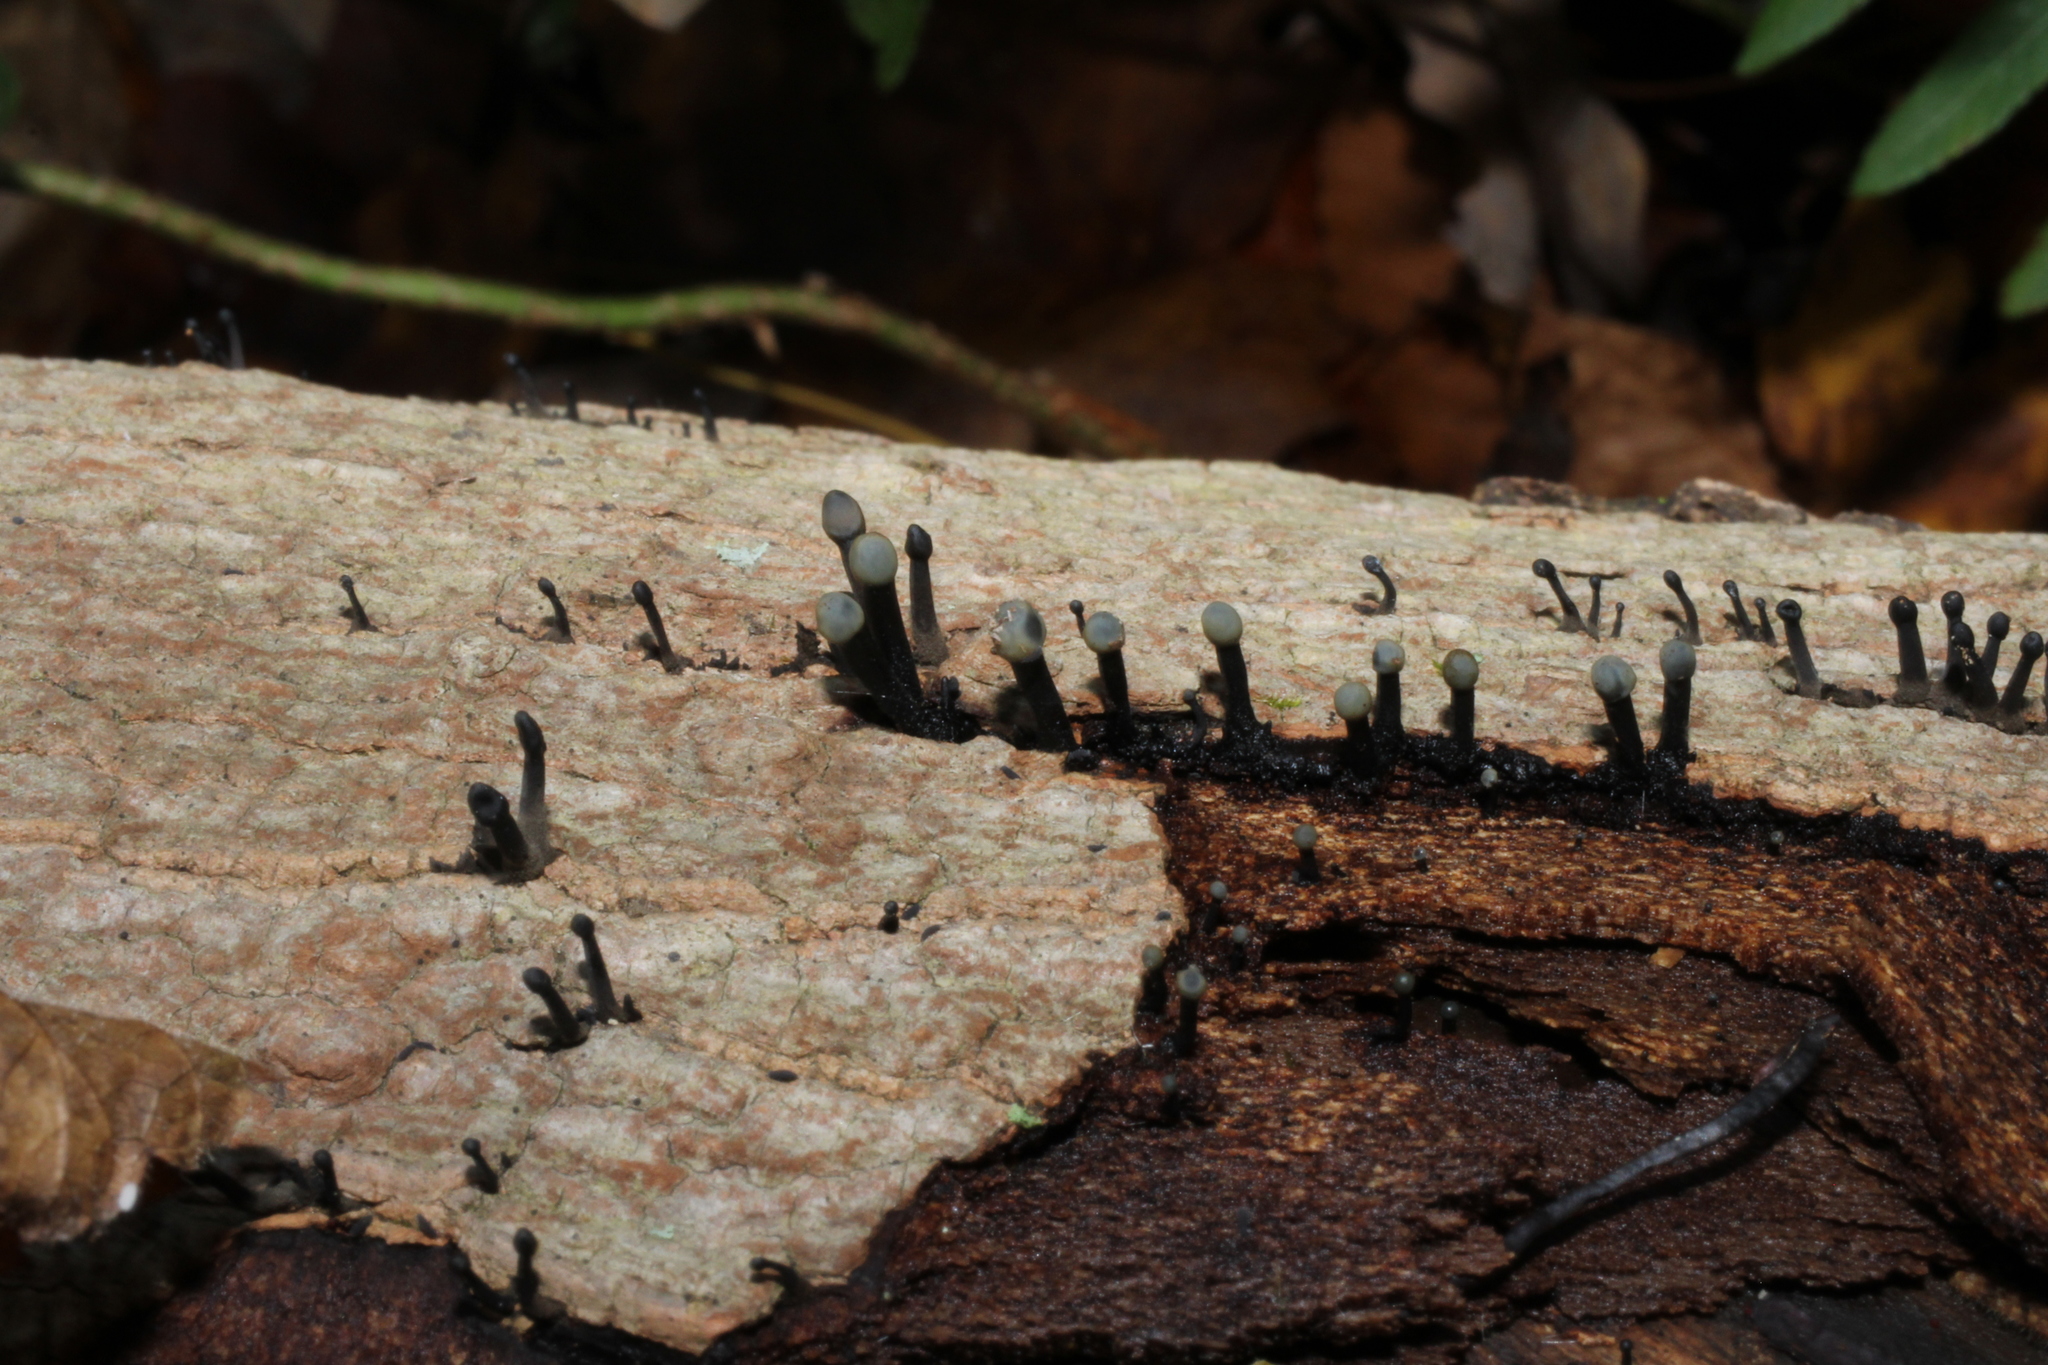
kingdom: Fungi
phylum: Ascomycota
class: Leotiomycetes
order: Helotiales
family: Bulgariaceae
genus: Holwaya
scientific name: Holwaya mucida
